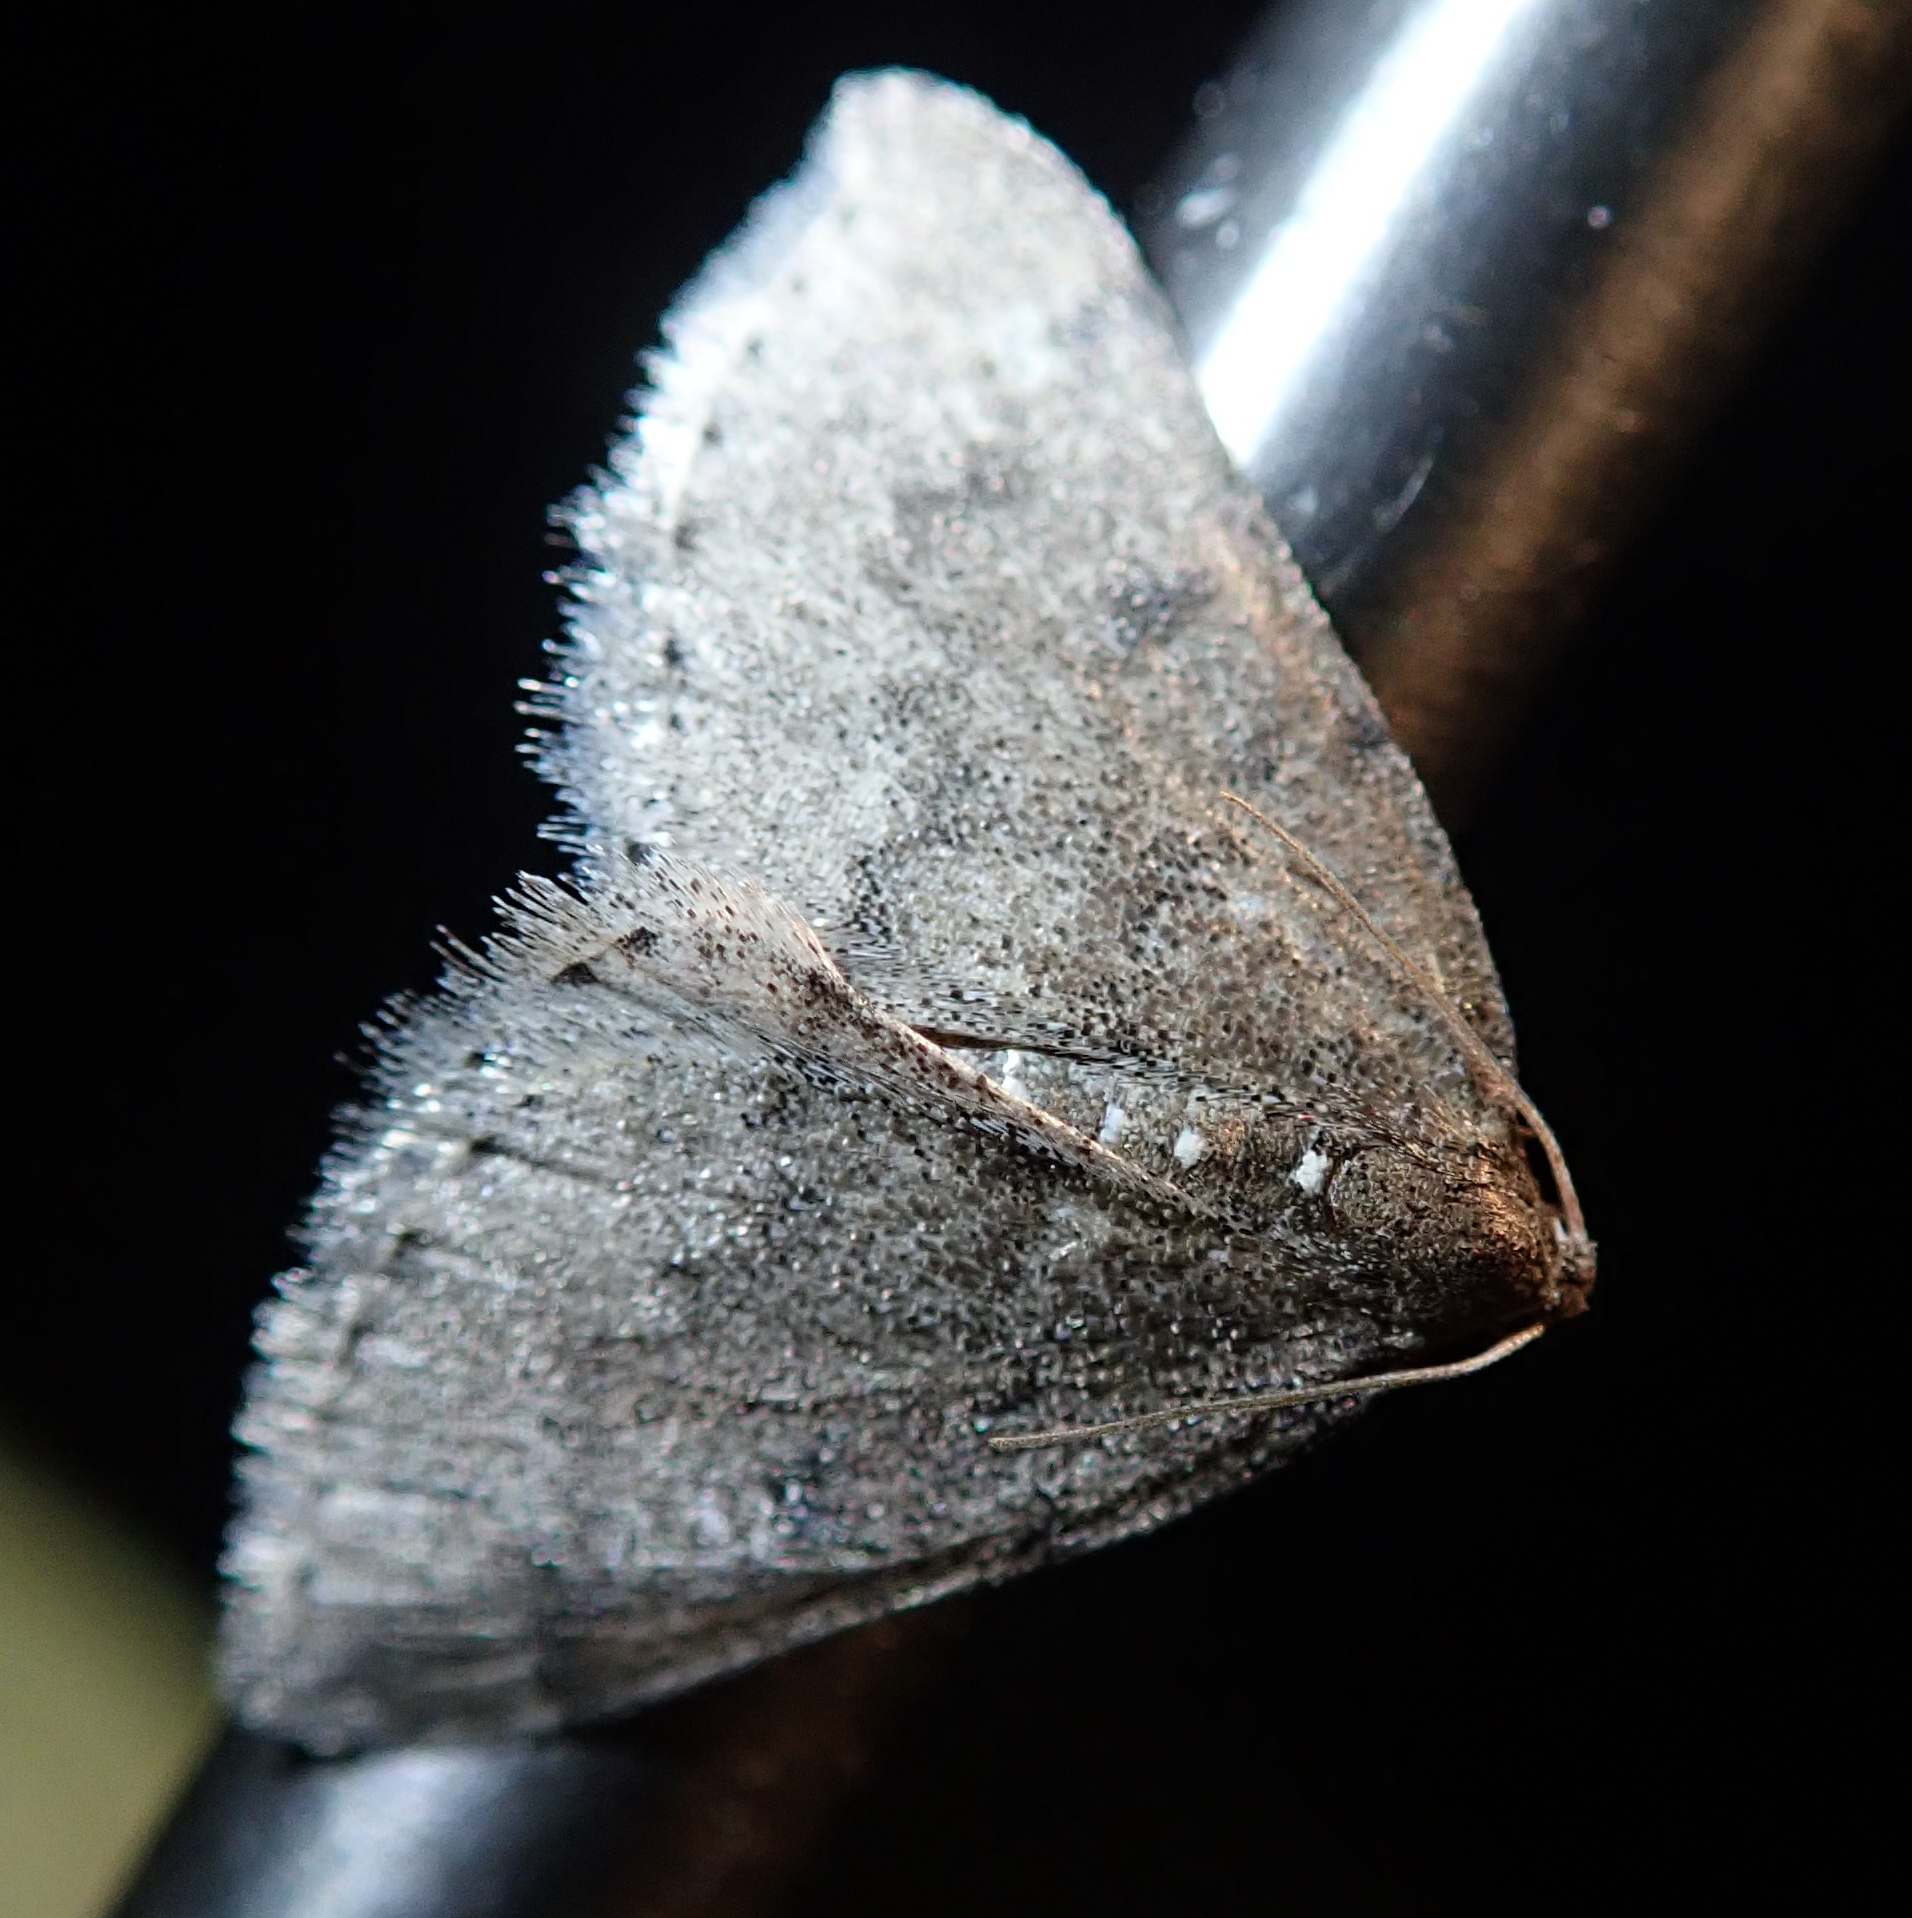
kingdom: Animalia
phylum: Arthropoda
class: Insecta
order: Lepidoptera
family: Geometridae
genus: Aleucis
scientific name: Aleucis distinctata
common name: Sloe carpet
